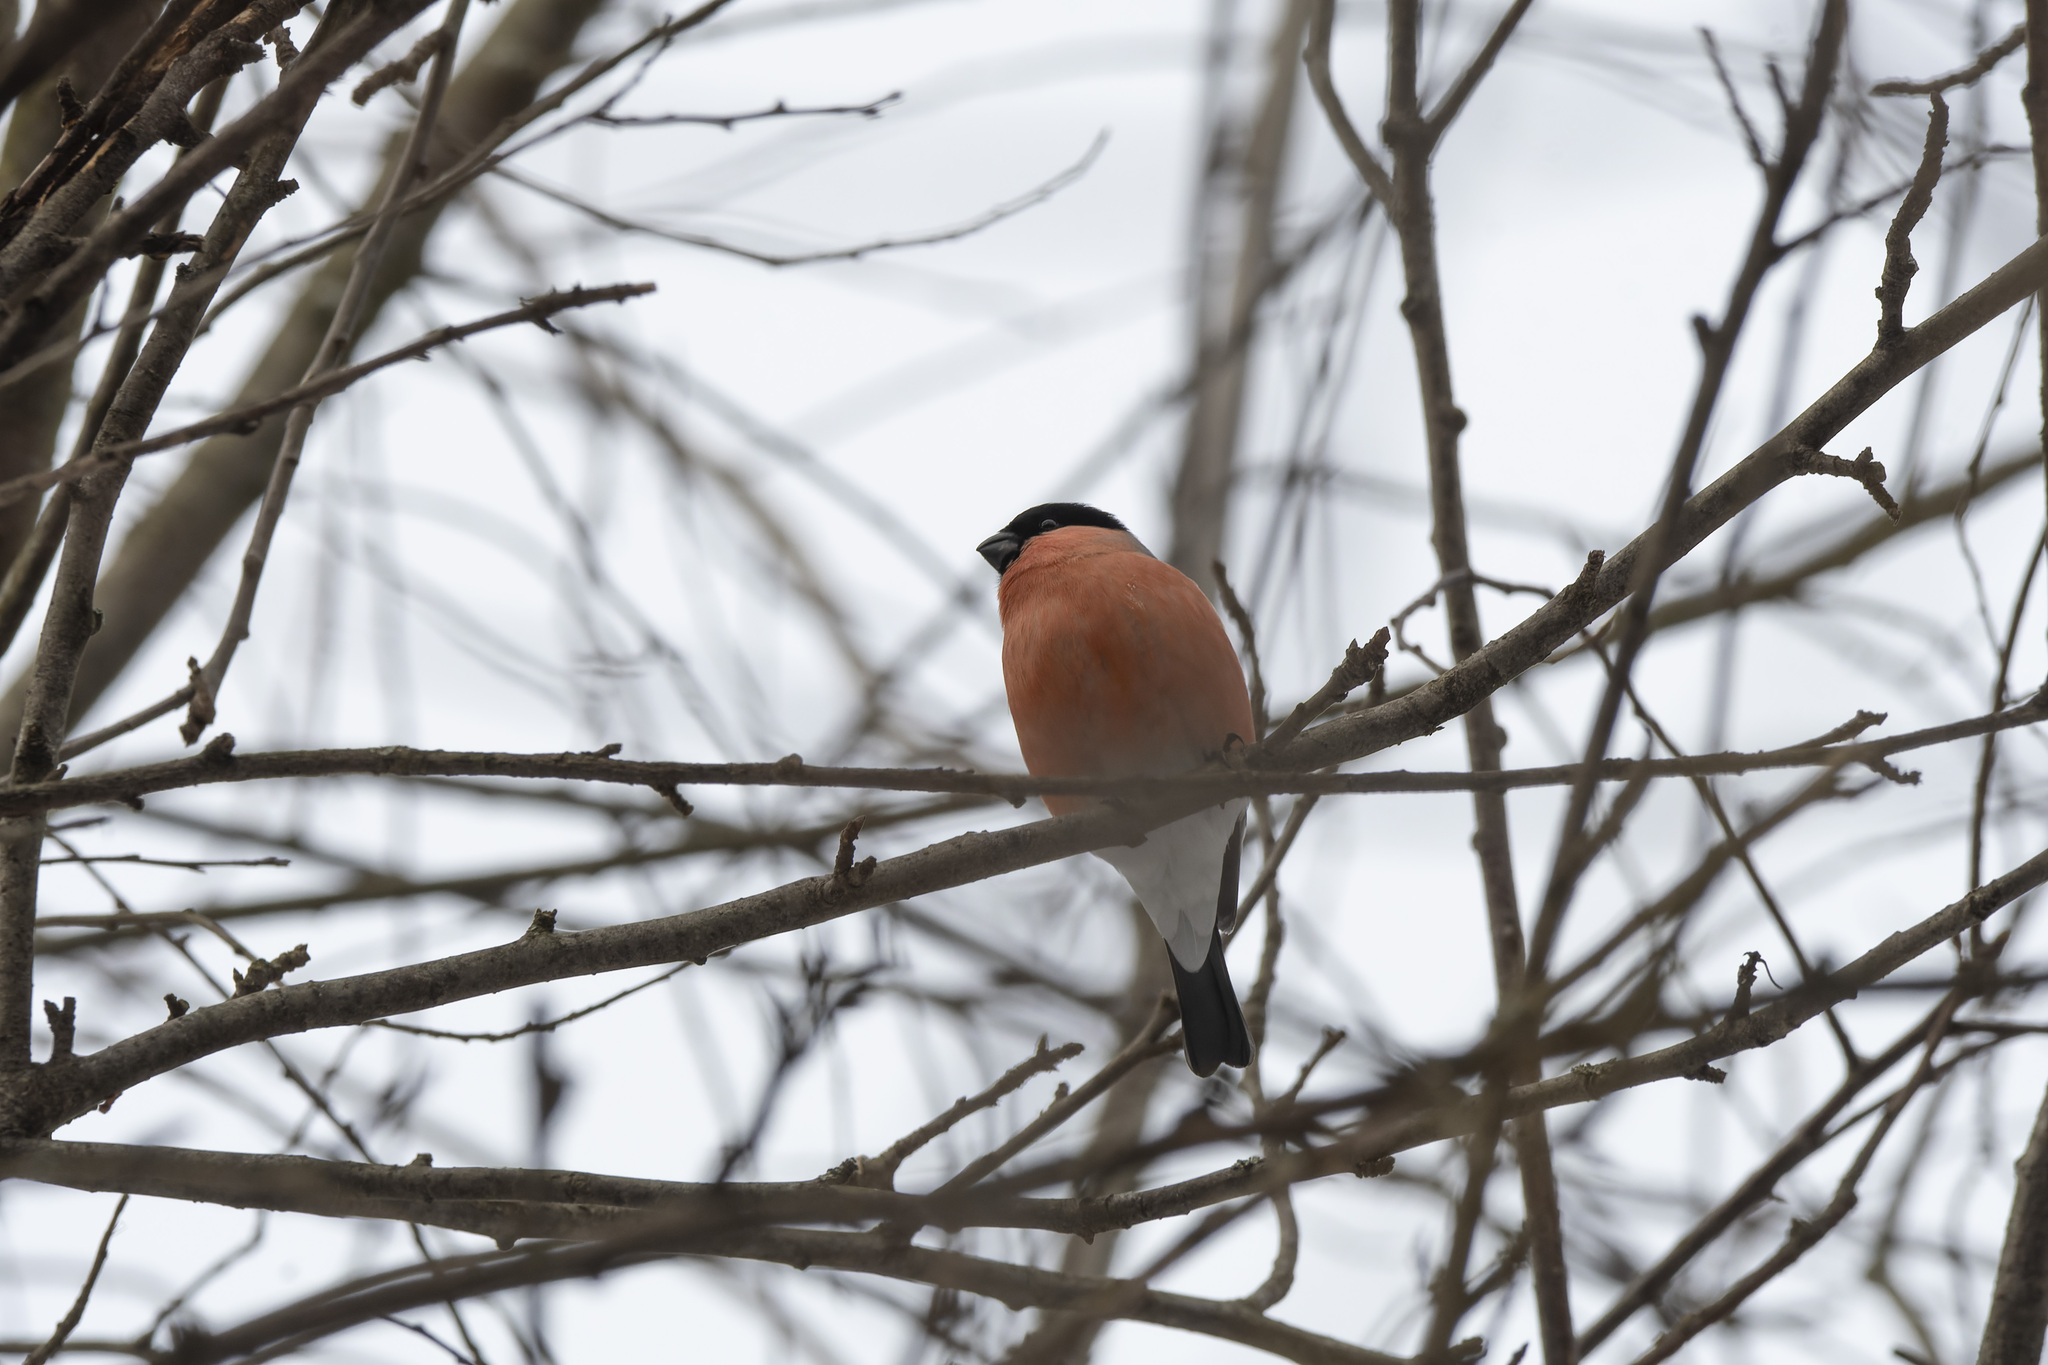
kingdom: Animalia
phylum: Chordata
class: Aves
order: Passeriformes
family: Fringillidae
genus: Pyrrhula
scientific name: Pyrrhula pyrrhula
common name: Eurasian bullfinch
